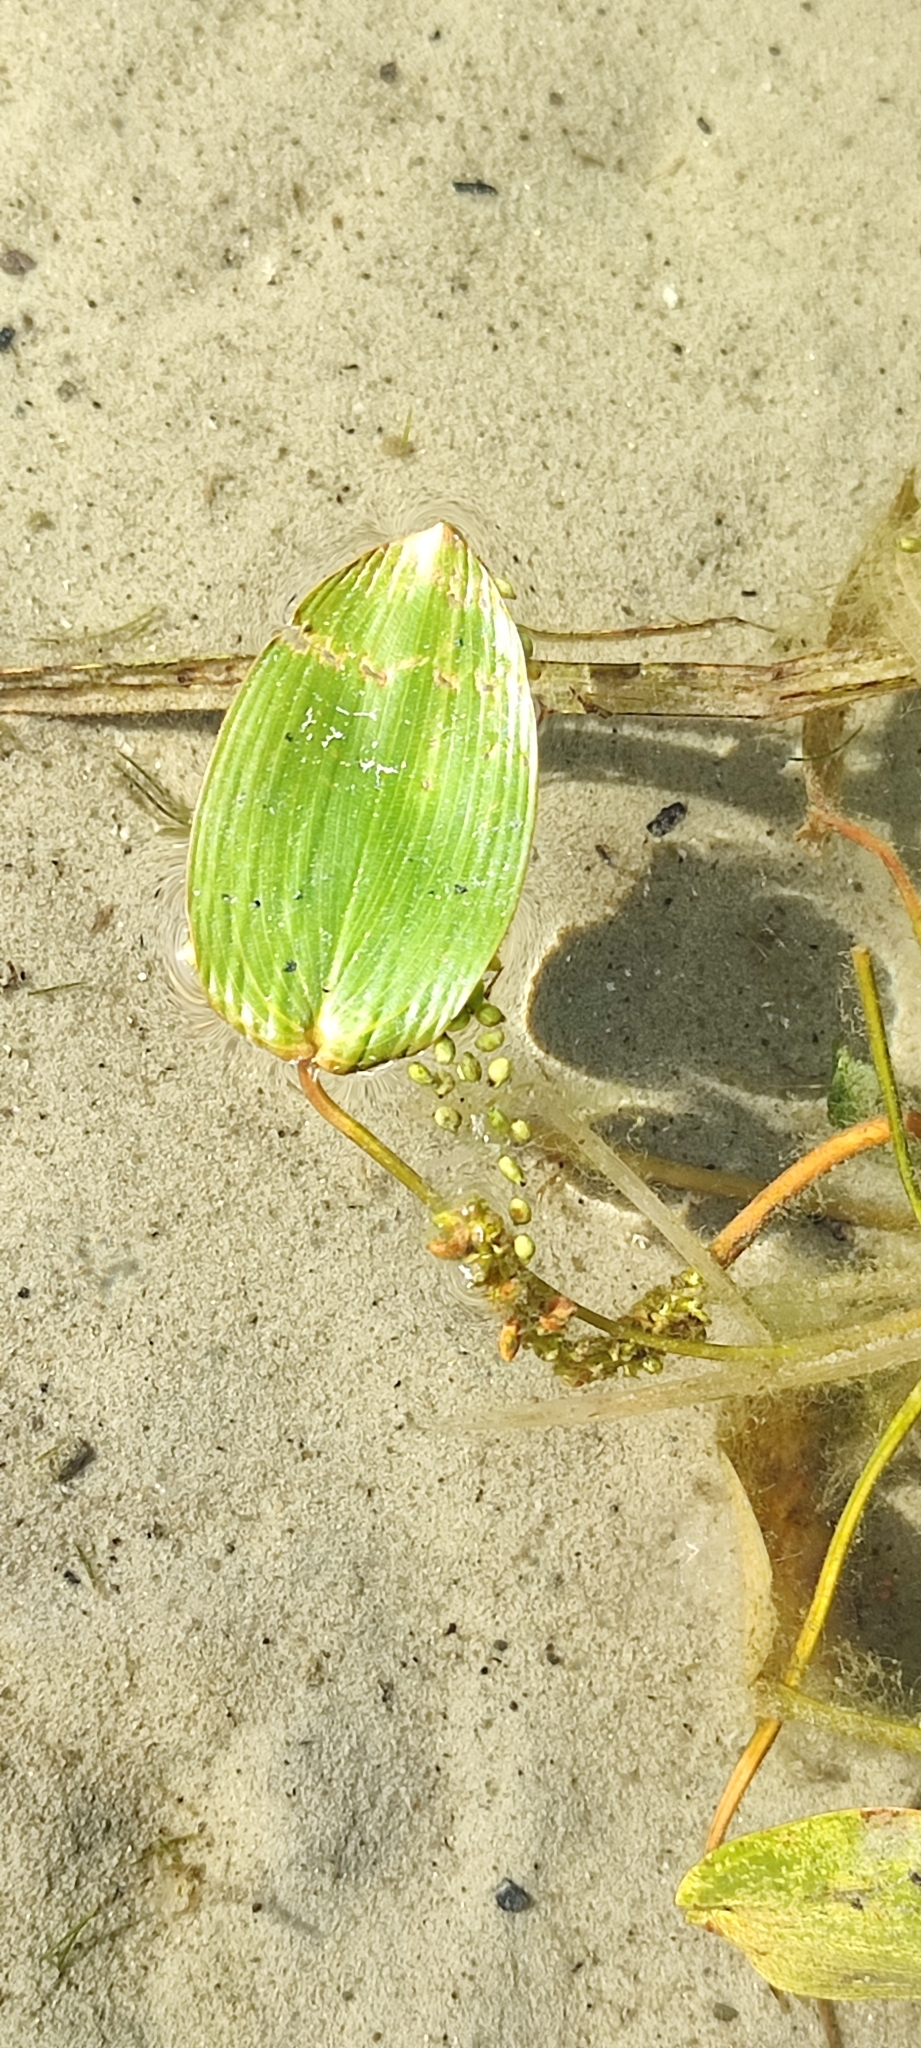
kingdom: Plantae
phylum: Tracheophyta
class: Liliopsida
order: Alismatales
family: Potamogetonaceae
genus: Potamogeton
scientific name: Potamogeton natans
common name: Broad-leaved pondweed
